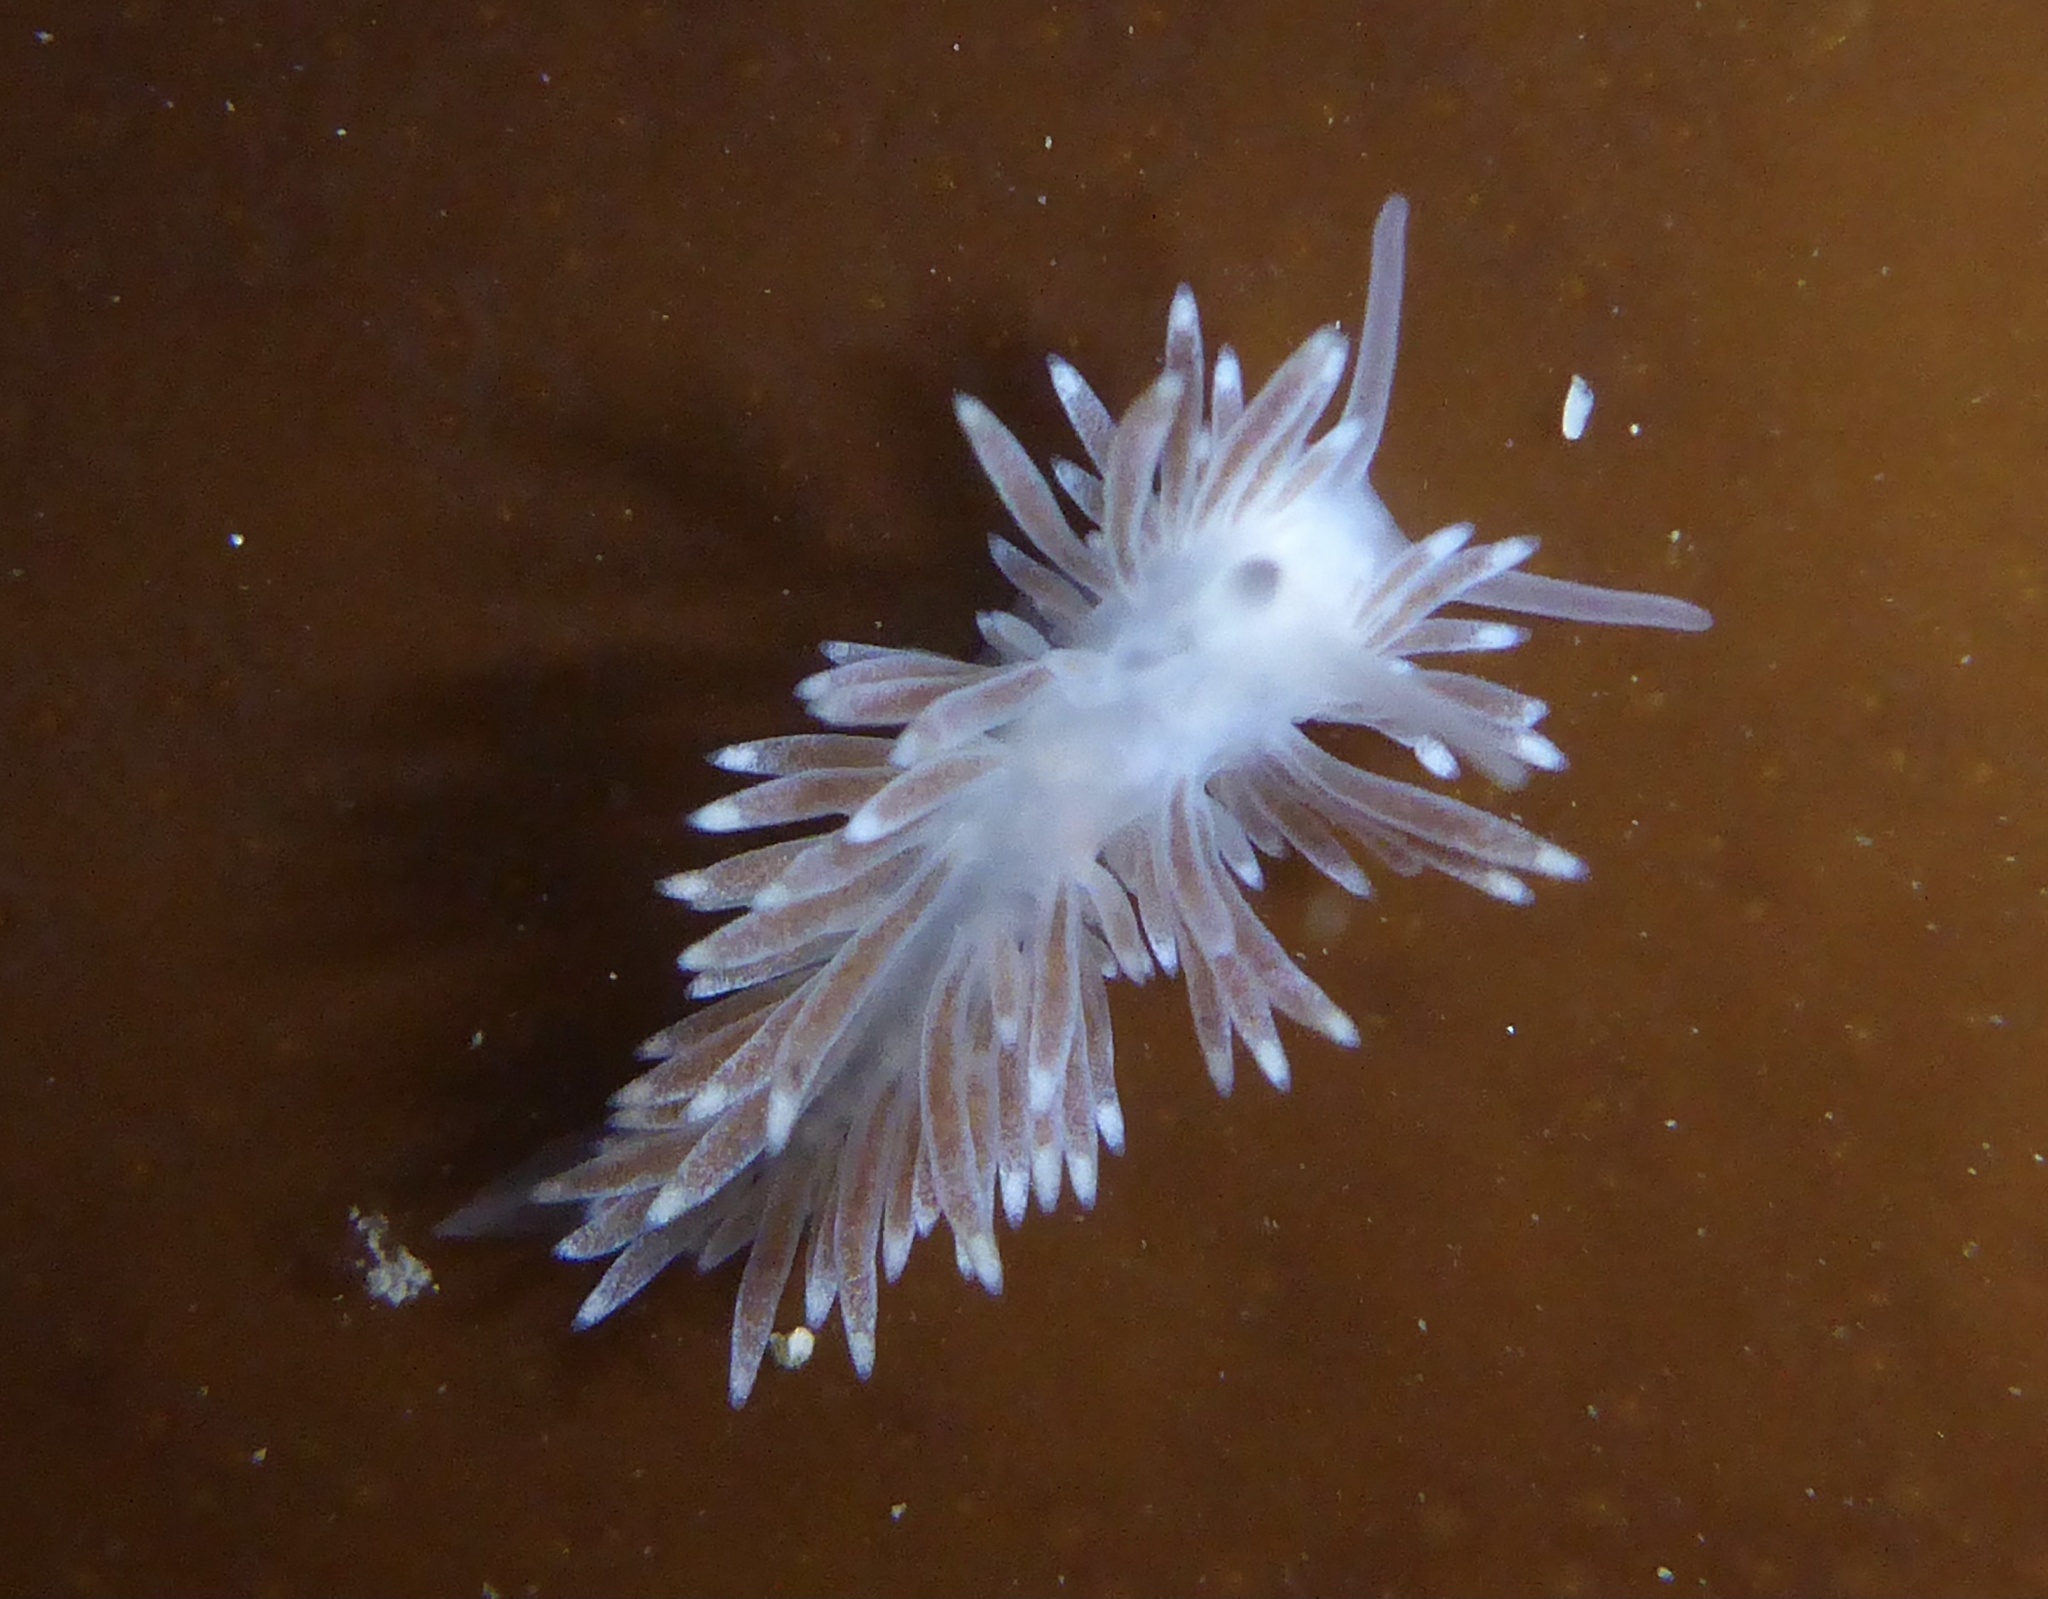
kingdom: Animalia
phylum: Mollusca
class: Gastropoda
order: Nudibranchia
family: Cuthonidae
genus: Cuthona
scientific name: Cuthona divae
